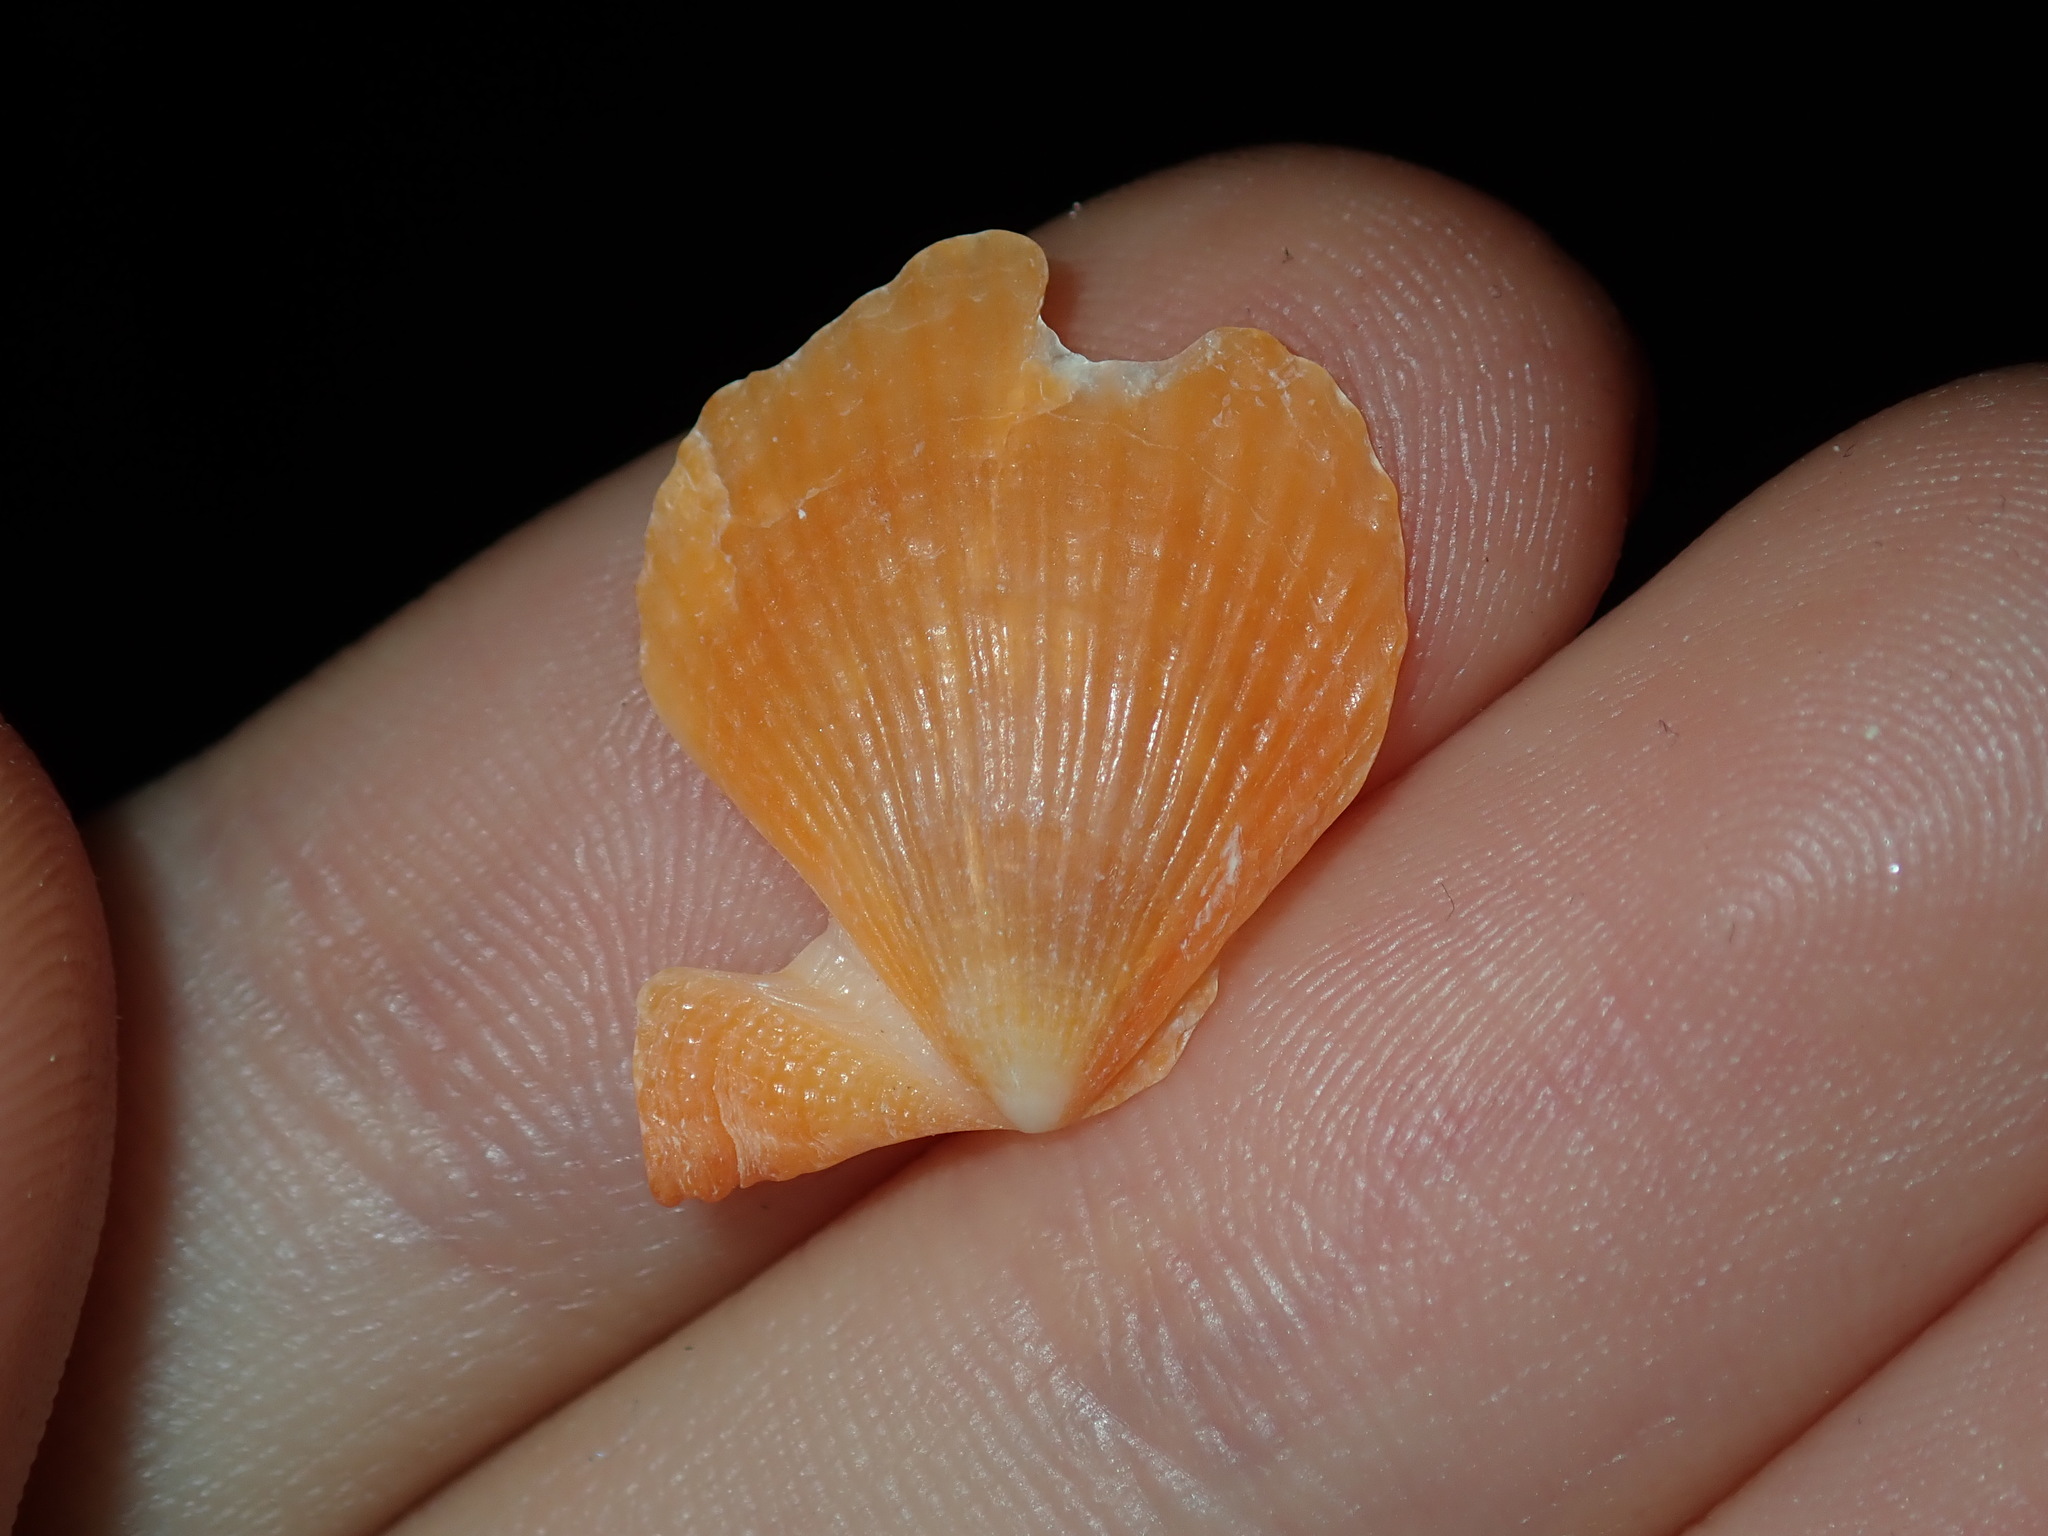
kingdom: Animalia
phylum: Mollusca
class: Bivalvia
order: Pectinida
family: Pectinidae
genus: Scaeochlamys
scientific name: Scaeochlamys livida
